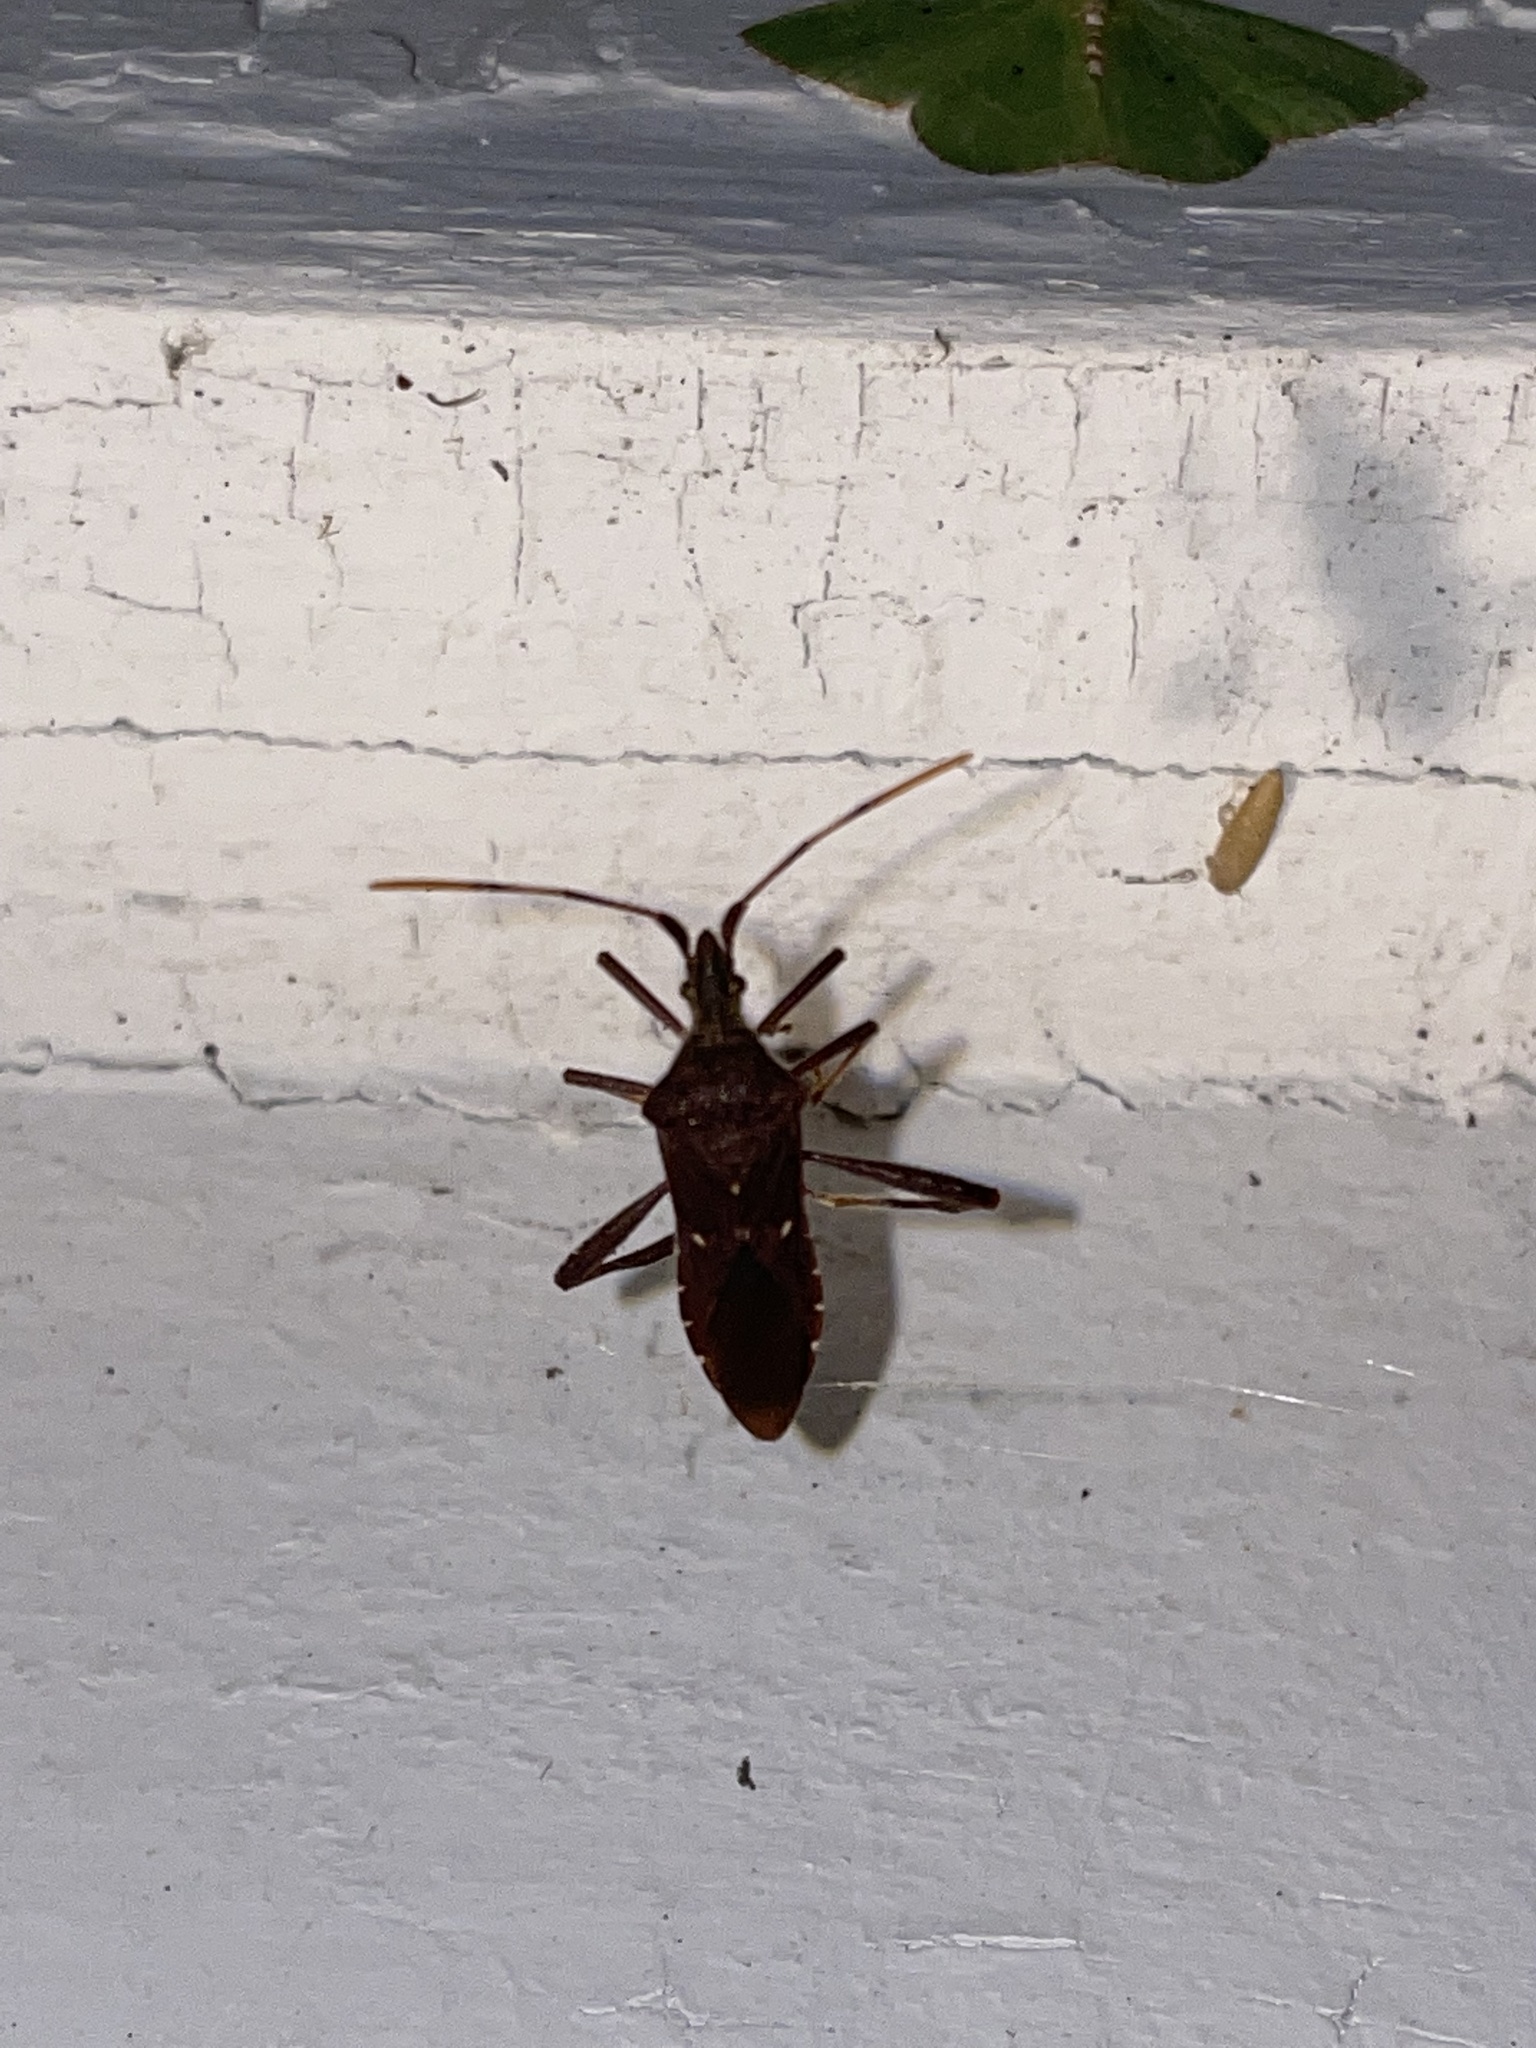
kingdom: Animalia
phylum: Arthropoda
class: Insecta
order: Hemiptera
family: Coreidae
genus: Leptoglossus
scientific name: Leptoglossus oppositus
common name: Northern leaf-footed bug
